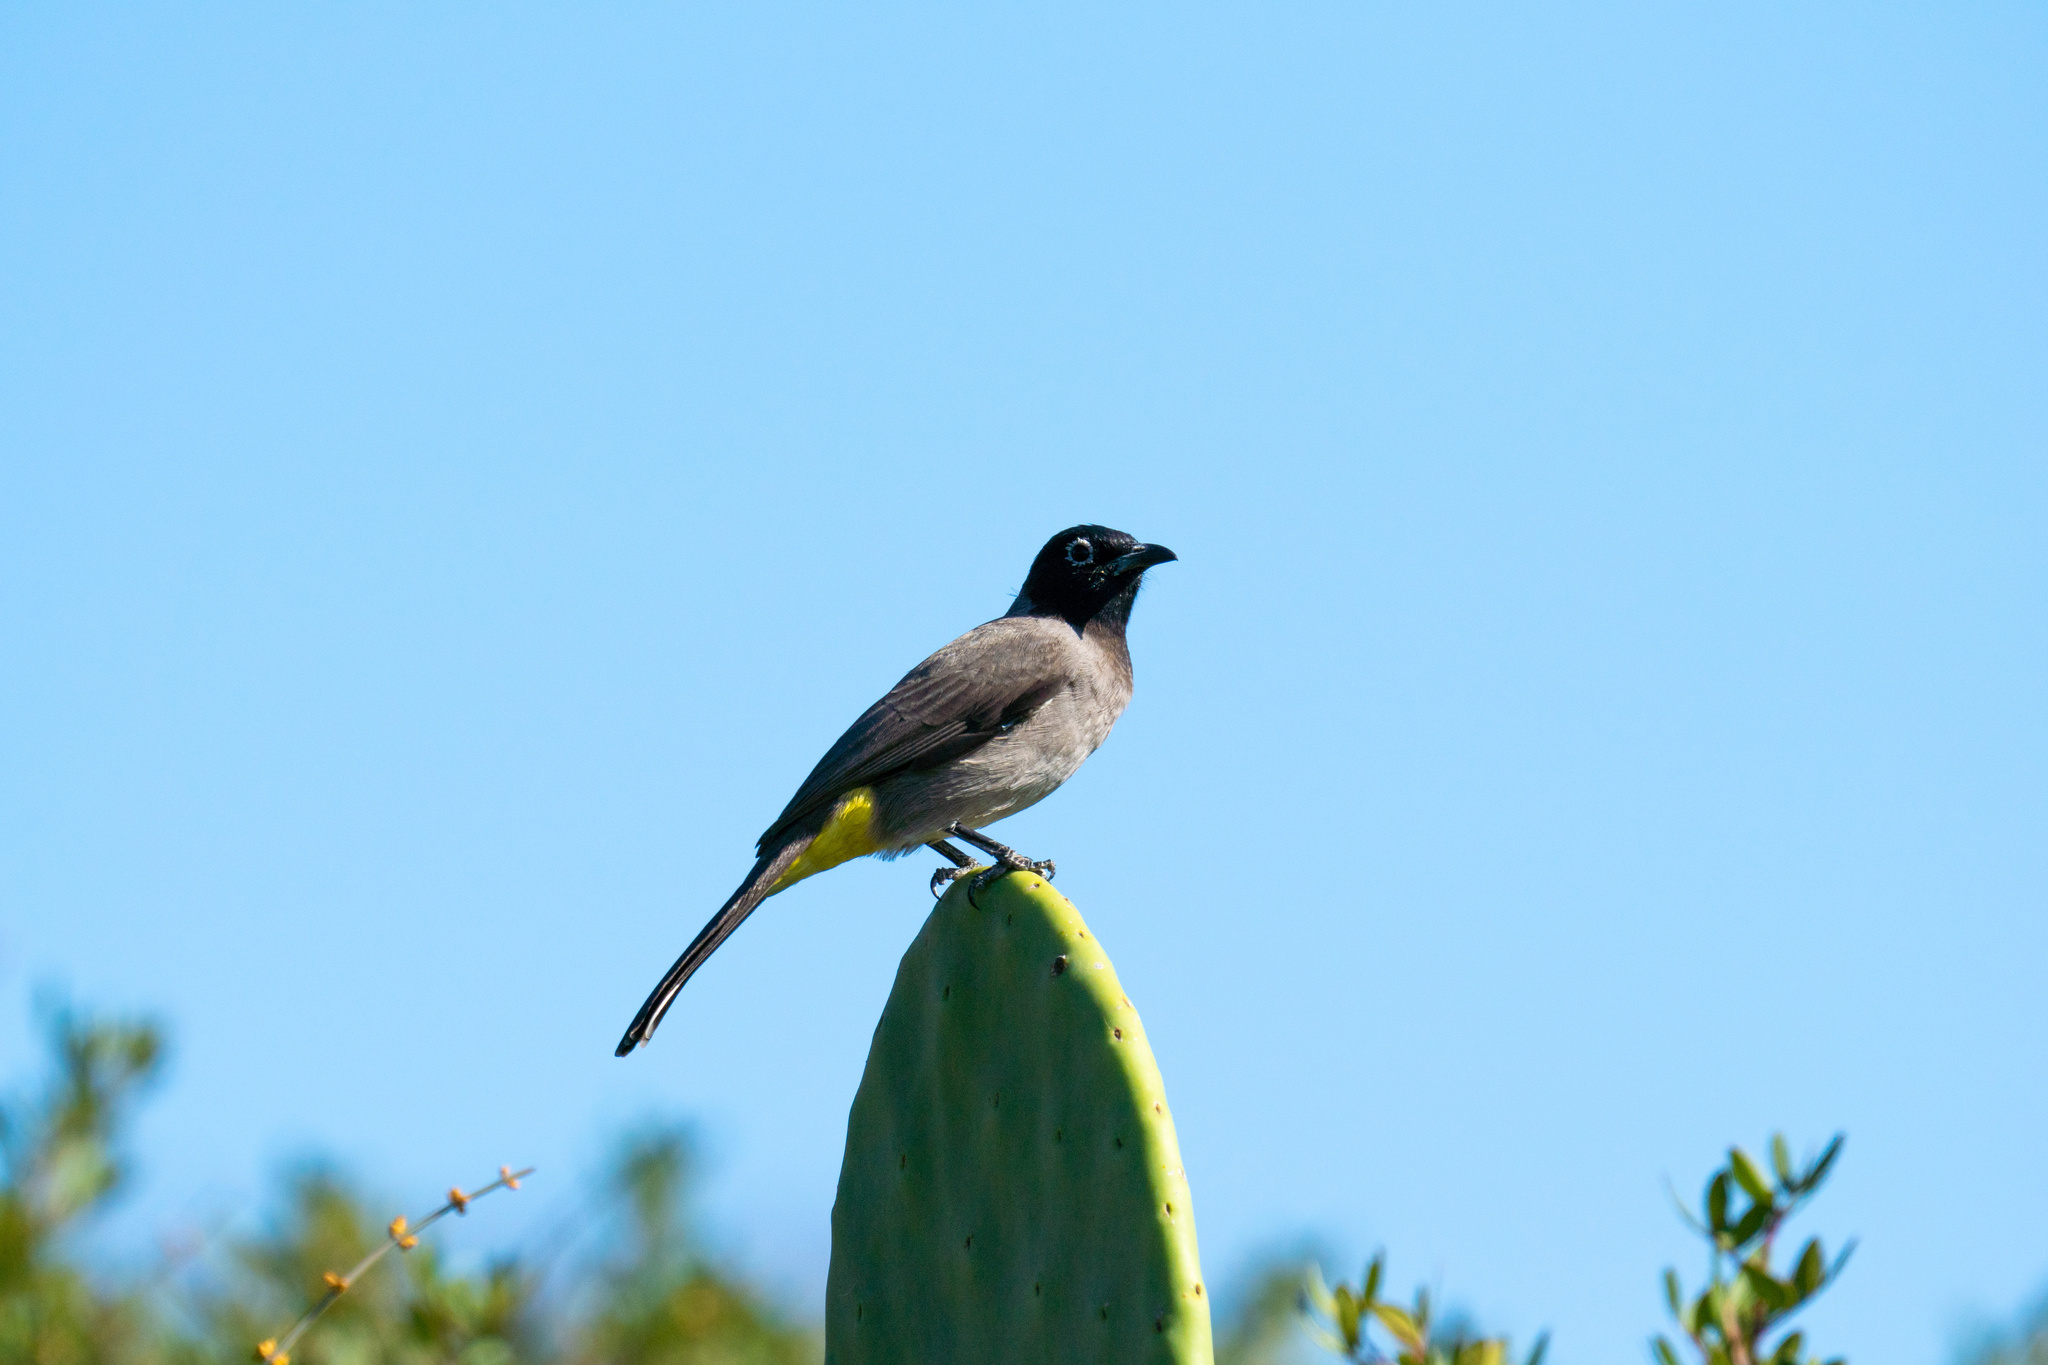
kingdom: Animalia
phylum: Chordata
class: Aves
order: Passeriformes
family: Pycnonotidae
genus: Pycnonotus
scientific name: Pycnonotus xanthopygos
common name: White-spectacled bulbul
